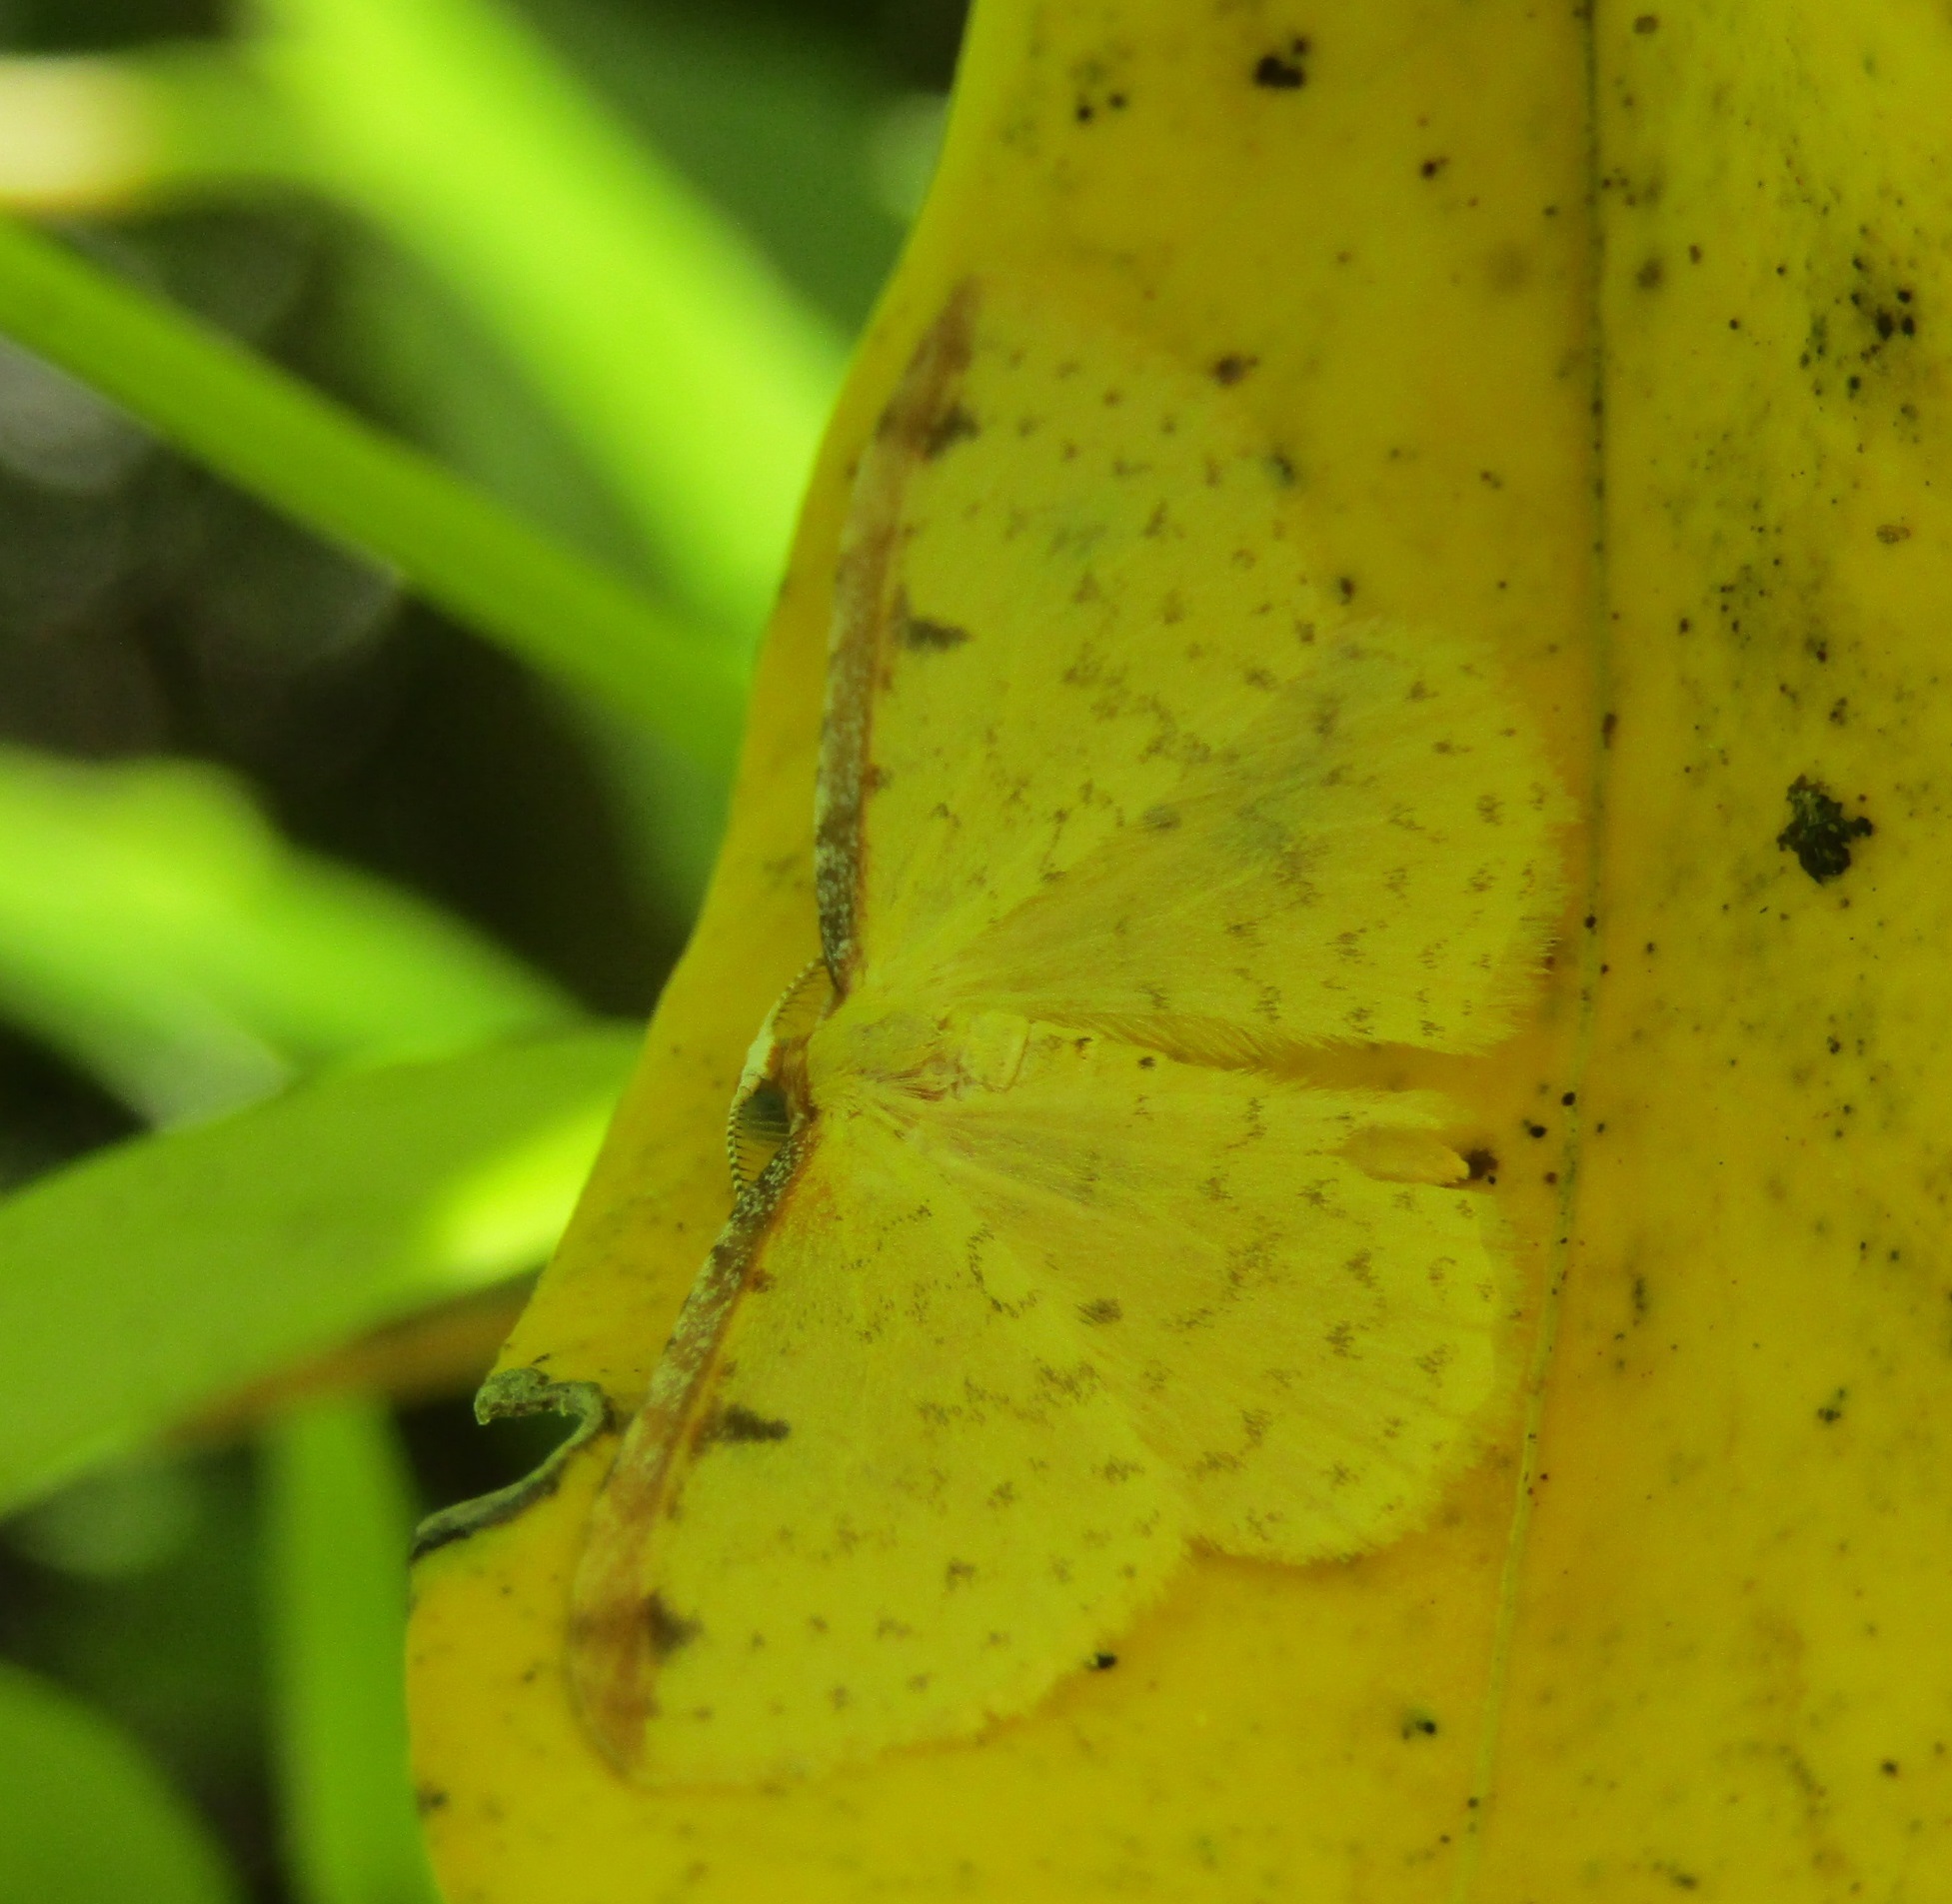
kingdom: Animalia
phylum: Arthropoda
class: Insecta
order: Lepidoptera
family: Geometridae
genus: Epiphryne
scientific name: Epiphryne undosata
